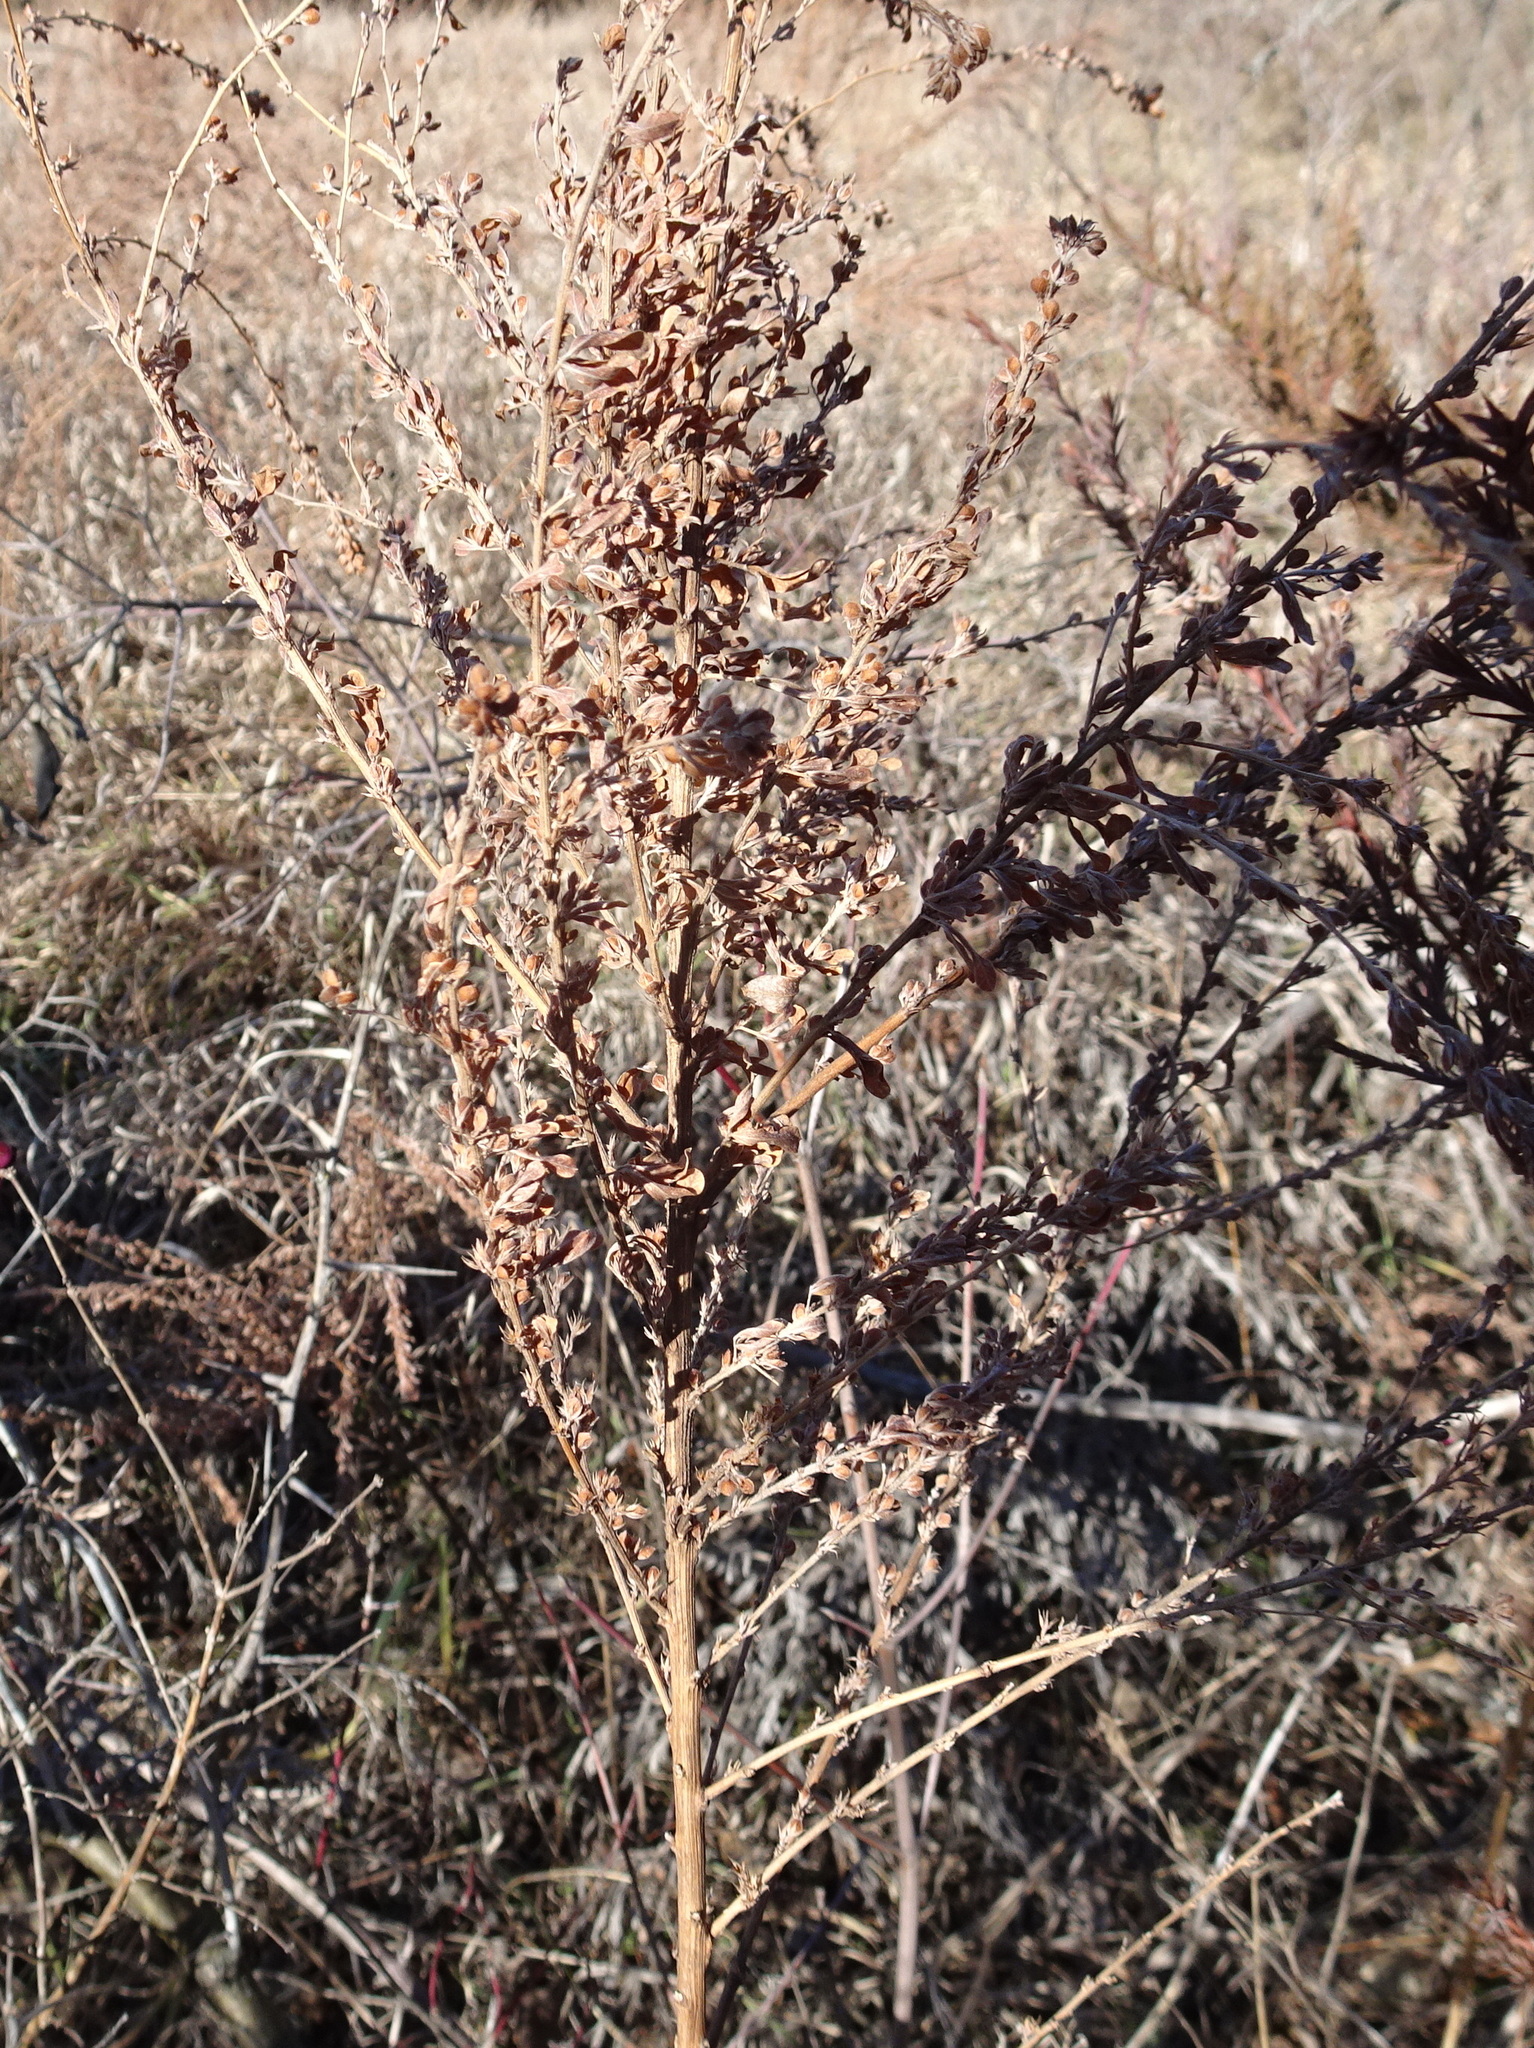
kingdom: Plantae
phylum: Tracheophyta
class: Magnoliopsida
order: Fabales
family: Fabaceae
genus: Lespedeza
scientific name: Lespedeza cuneata
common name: Chinese bush-clover
